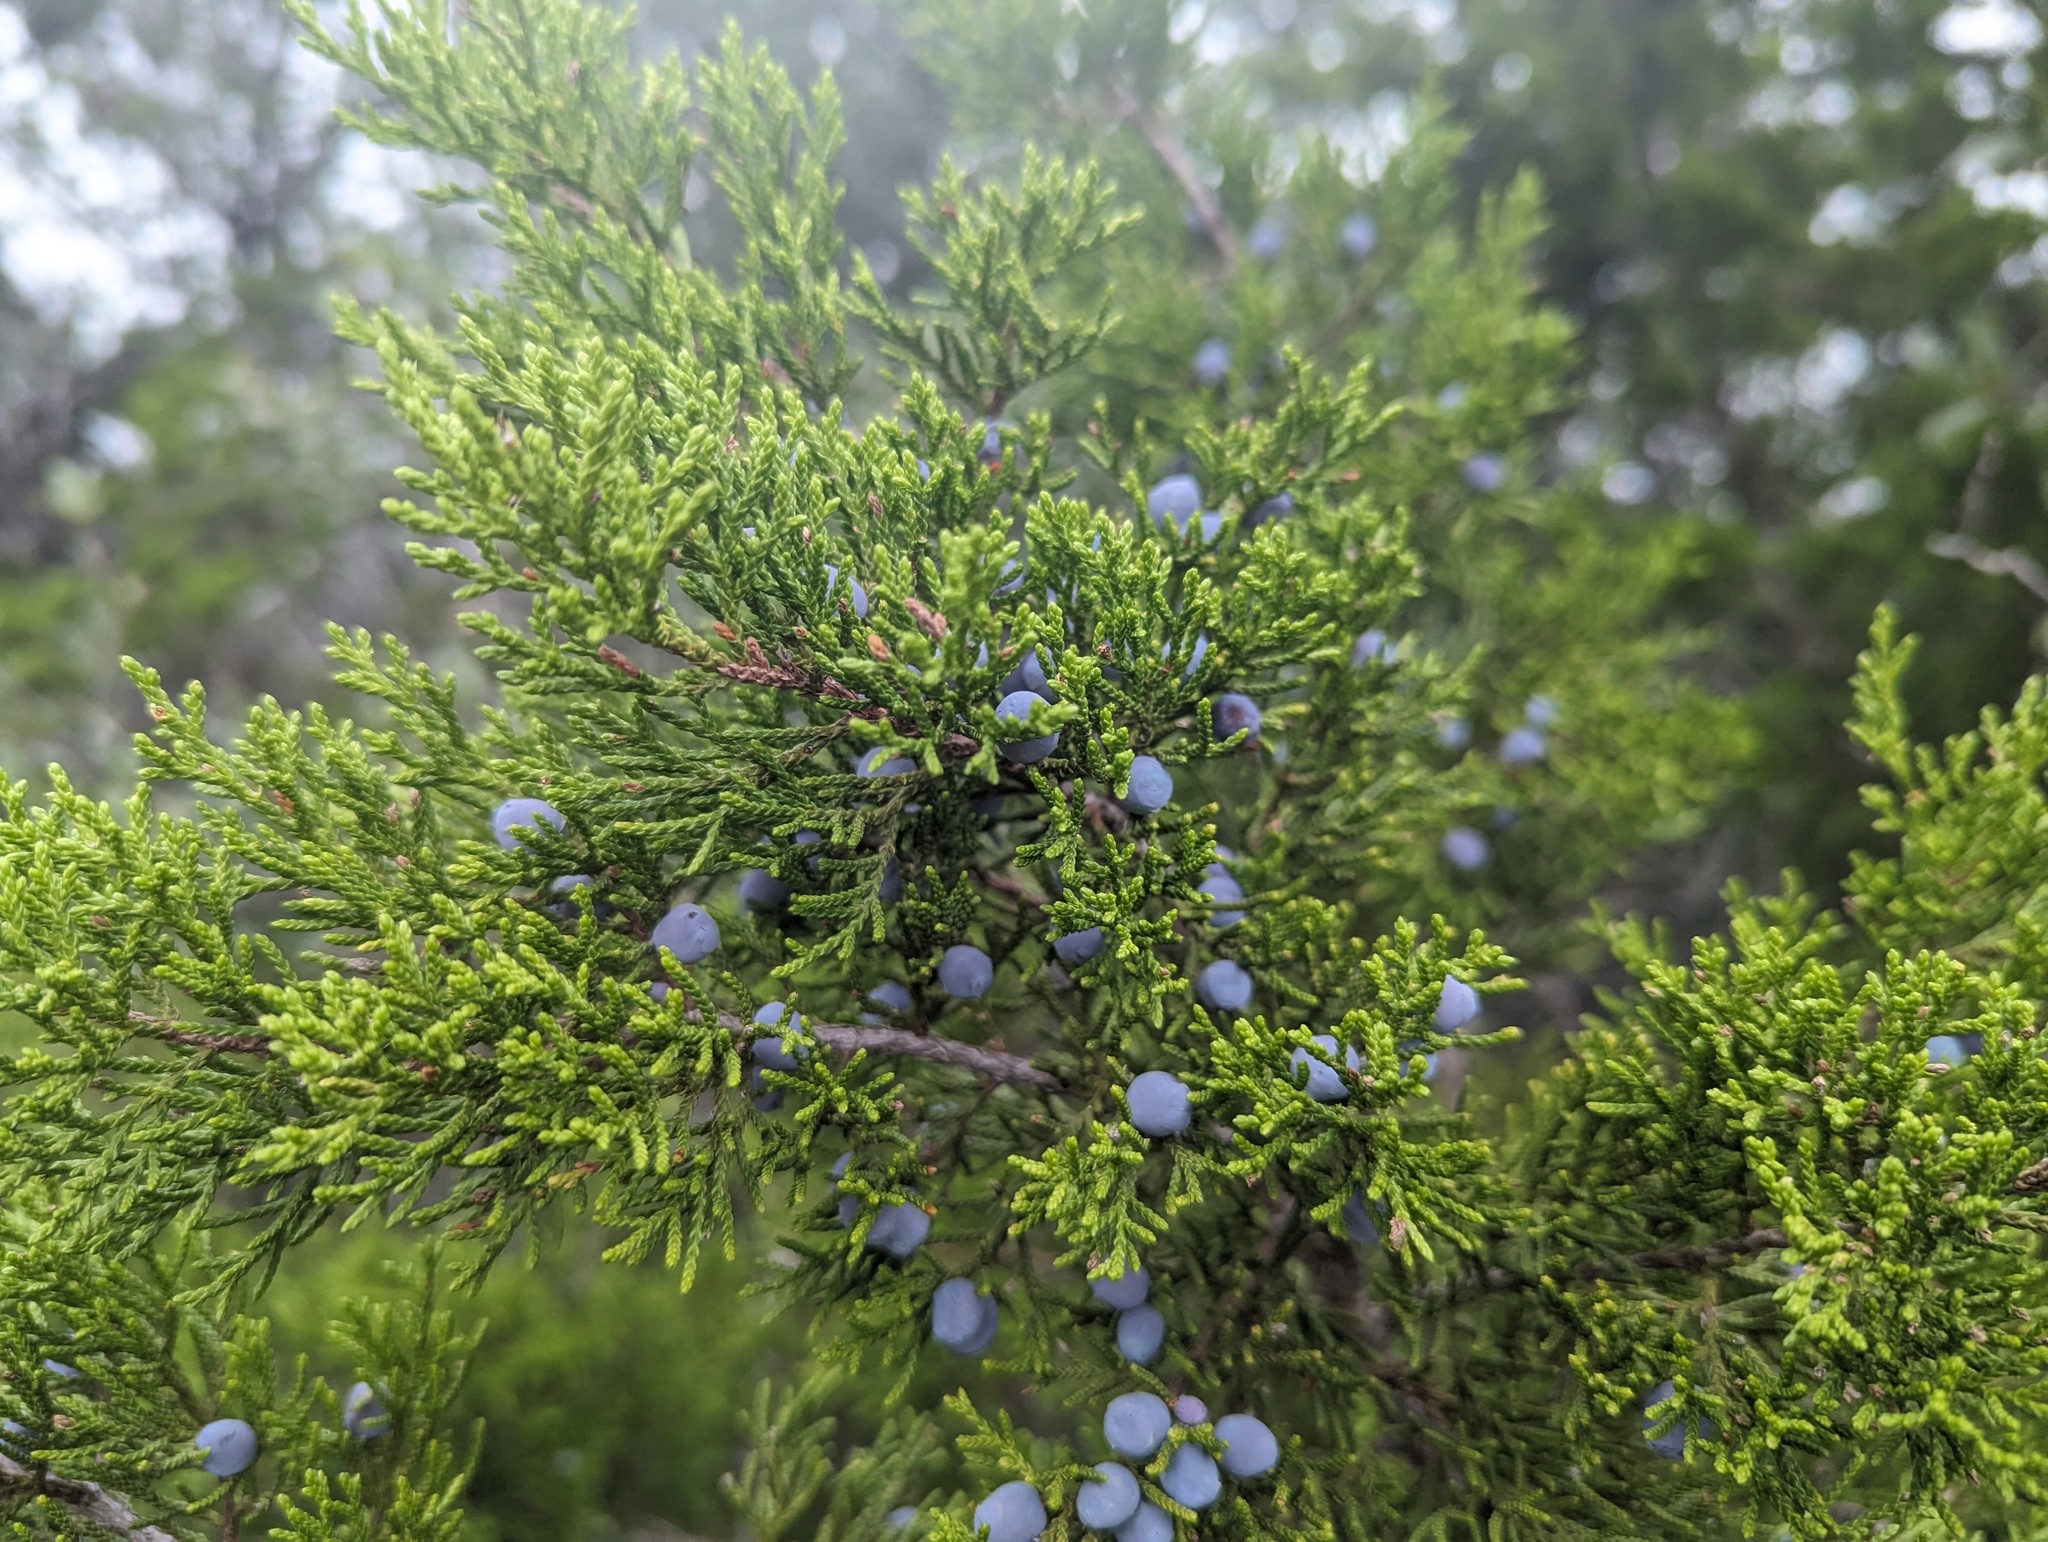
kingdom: Plantae
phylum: Tracheophyta
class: Pinopsida
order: Pinales
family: Cupressaceae
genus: Juniperus
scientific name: Juniperus ashei
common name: Mexican juniper
